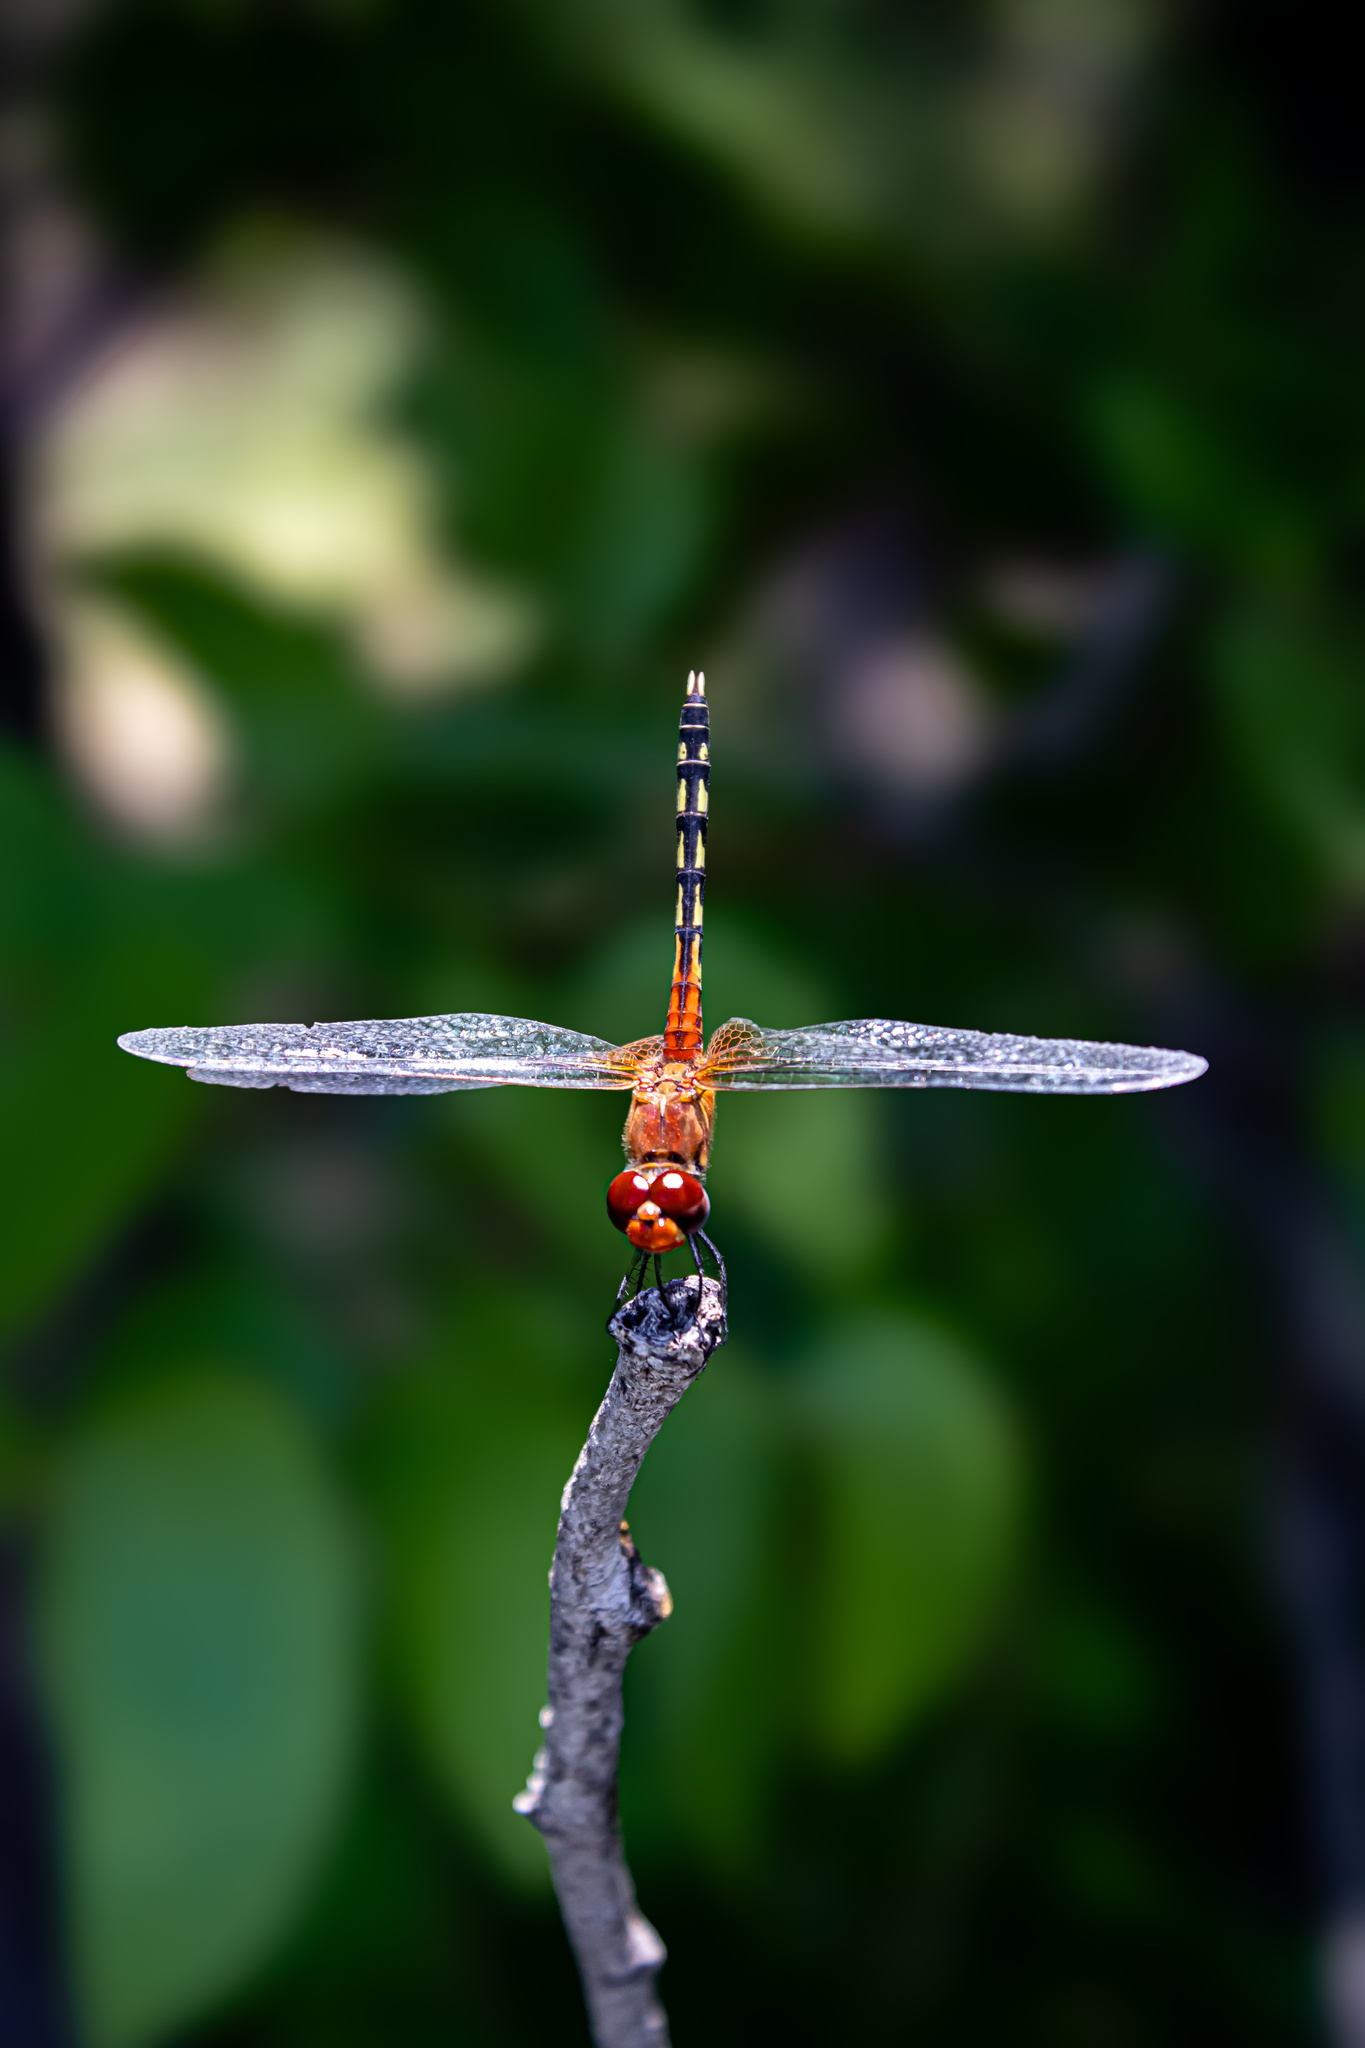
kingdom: Animalia
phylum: Arthropoda
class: Insecta
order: Odonata
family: Libellulidae
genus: Diplacodes
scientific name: Diplacodes luminans
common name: Barbet percher
